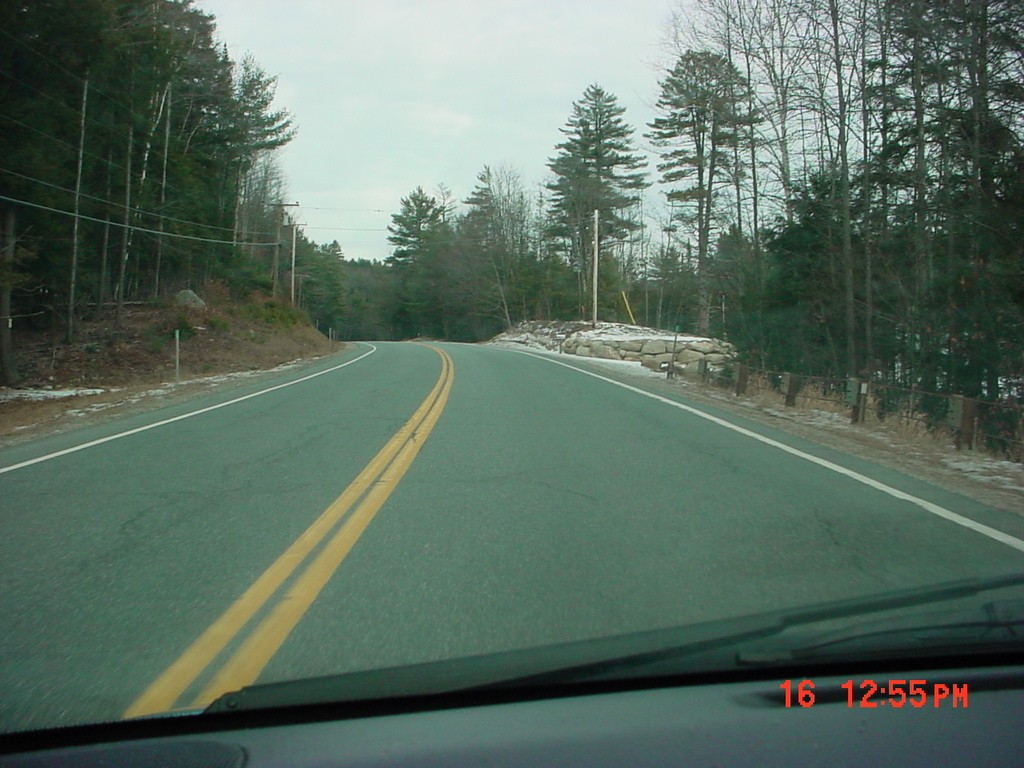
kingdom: Plantae
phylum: Tracheophyta
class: Pinopsida
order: Pinales
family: Pinaceae
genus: Pinus
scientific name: Pinus strobus
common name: Weymouth pine
